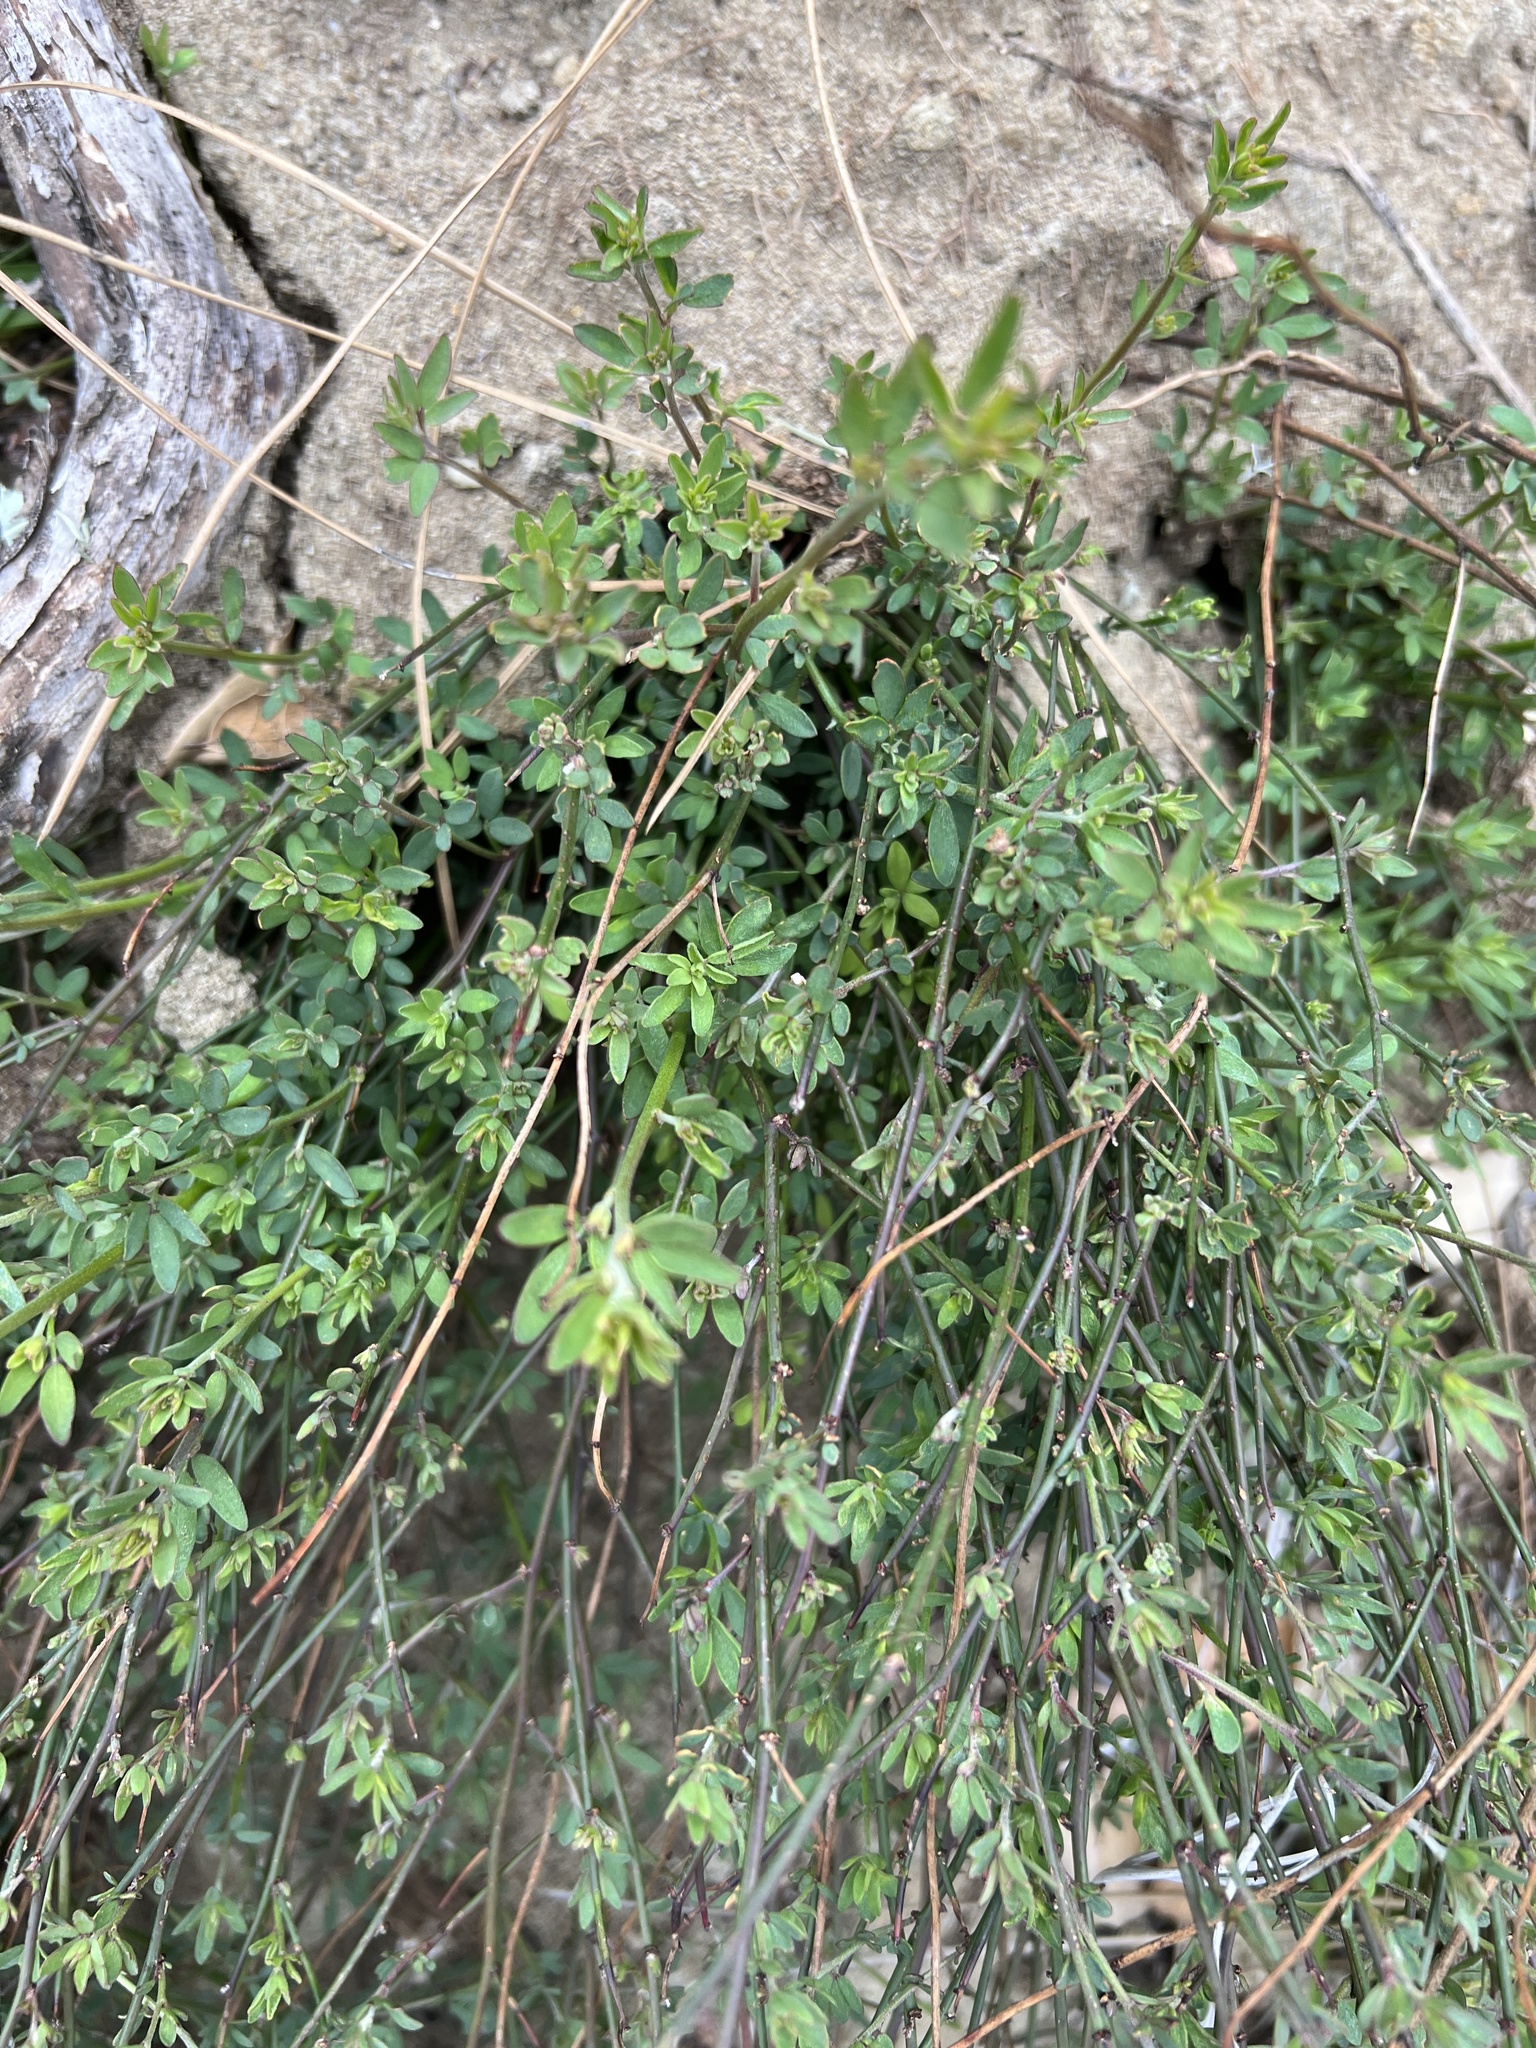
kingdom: Plantae
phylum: Tracheophyta
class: Magnoliopsida
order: Fabales
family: Fabaceae
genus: Acmispon
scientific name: Acmispon glaber
